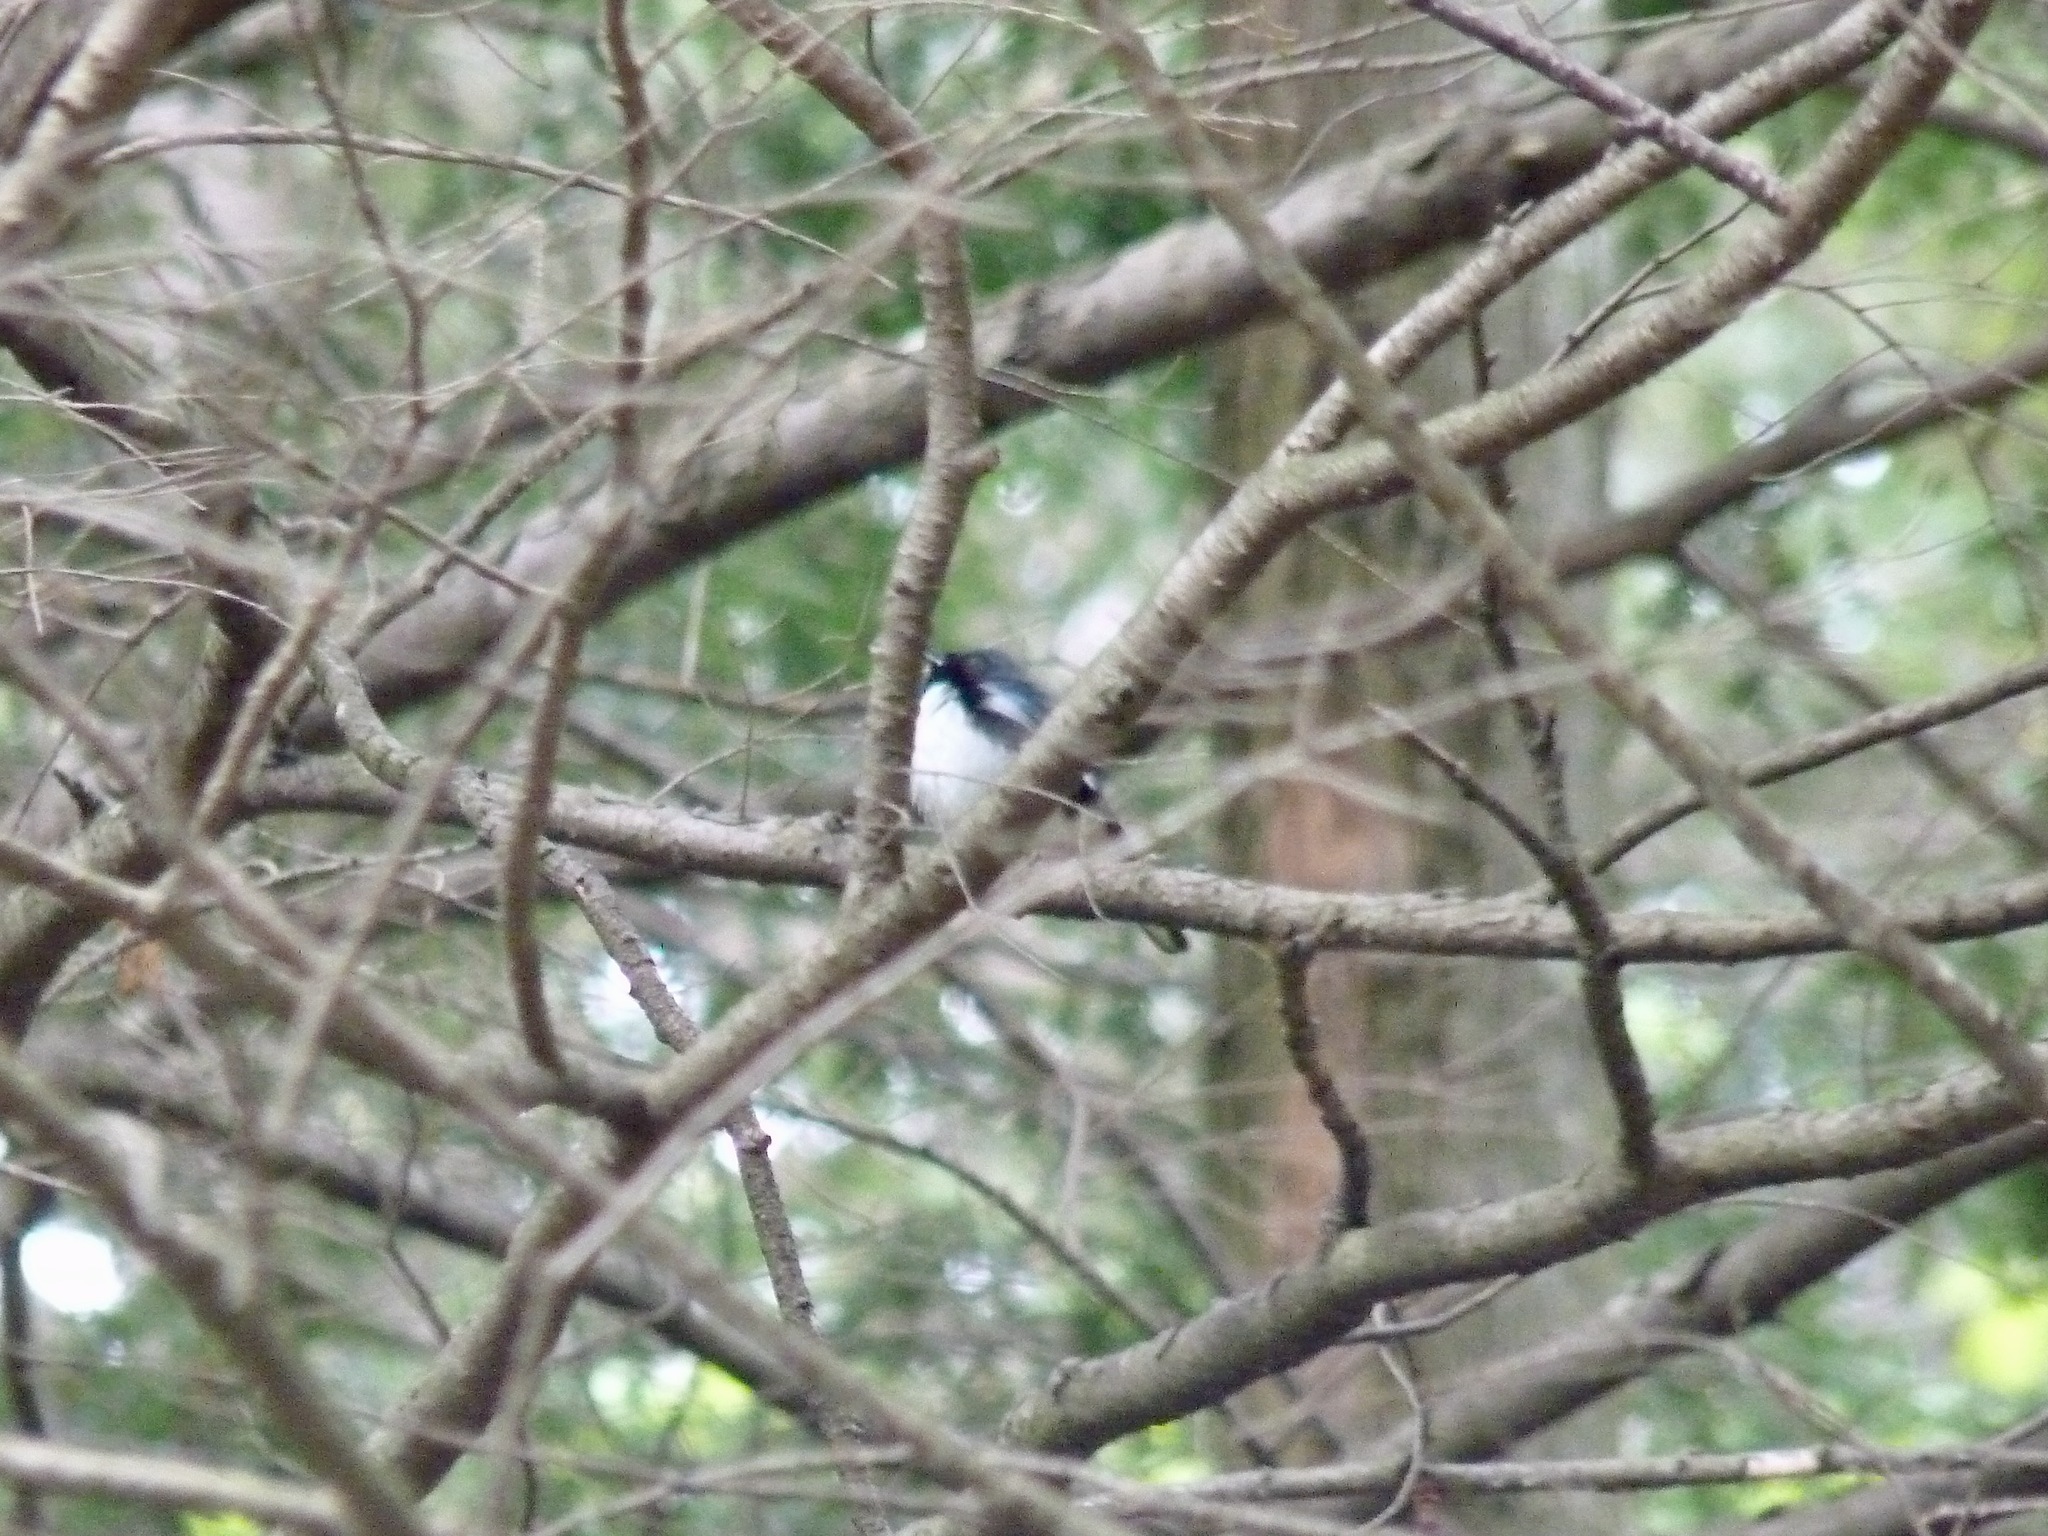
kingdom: Animalia
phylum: Chordata
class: Aves
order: Passeriformes
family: Parulidae
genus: Setophaga
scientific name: Setophaga caerulescens
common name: Black-throated blue warbler
